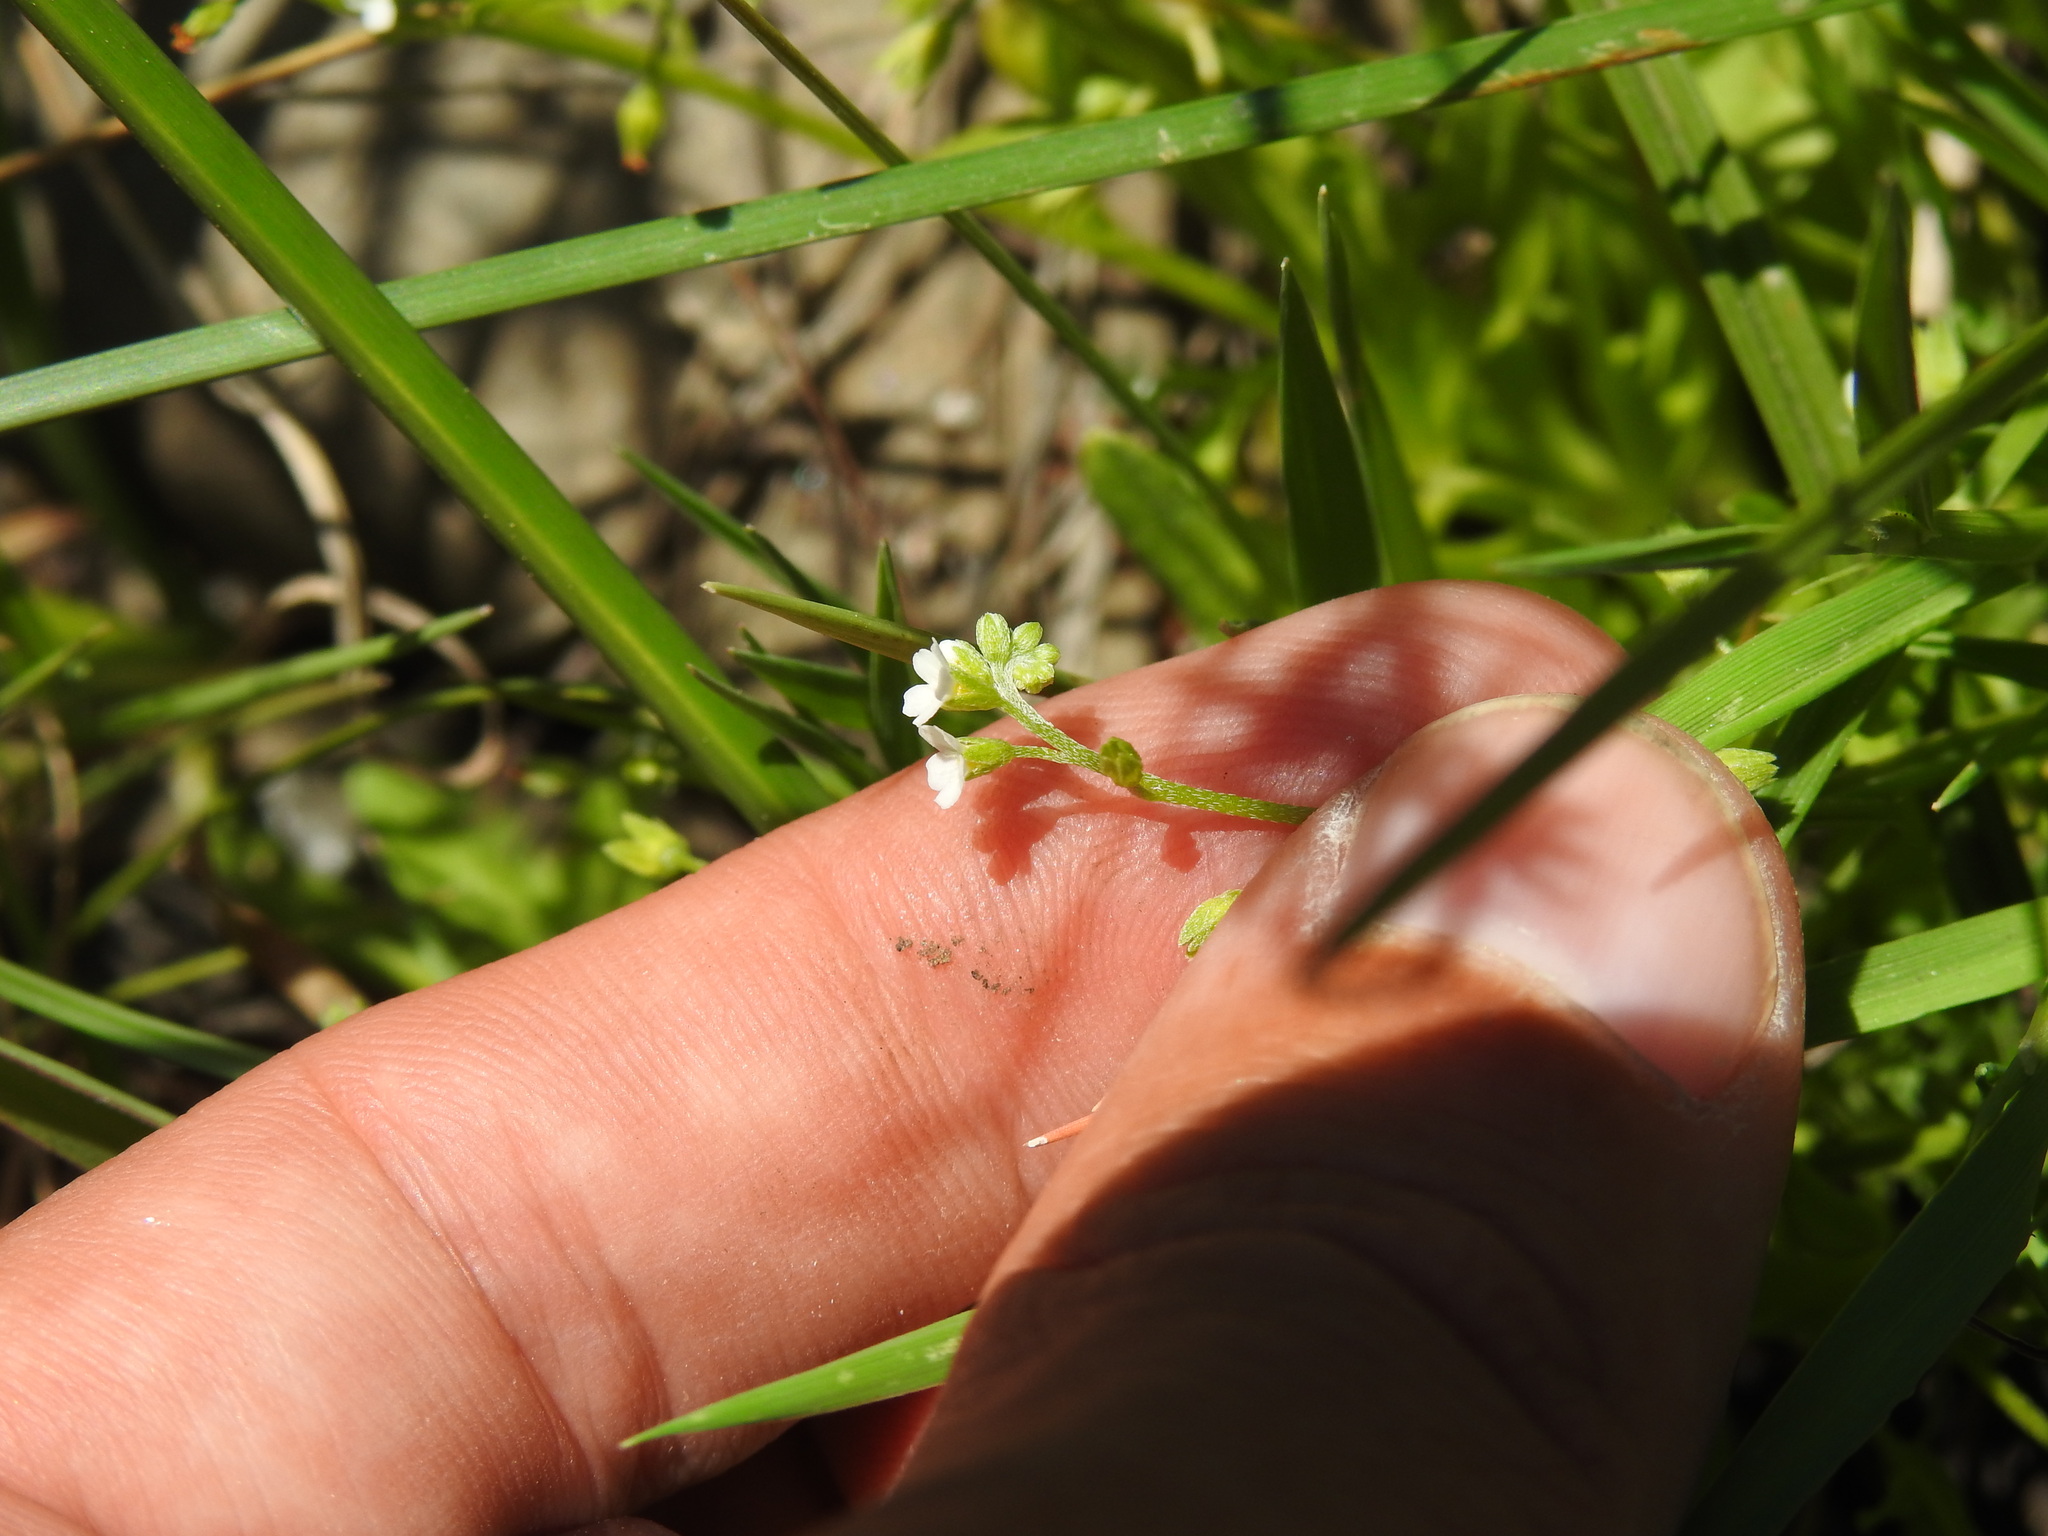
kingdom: Plantae
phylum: Tracheophyta
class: Magnoliopsida
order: Boraginales
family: Boraginaceae
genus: Myosotis
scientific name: Myosotis debilis
